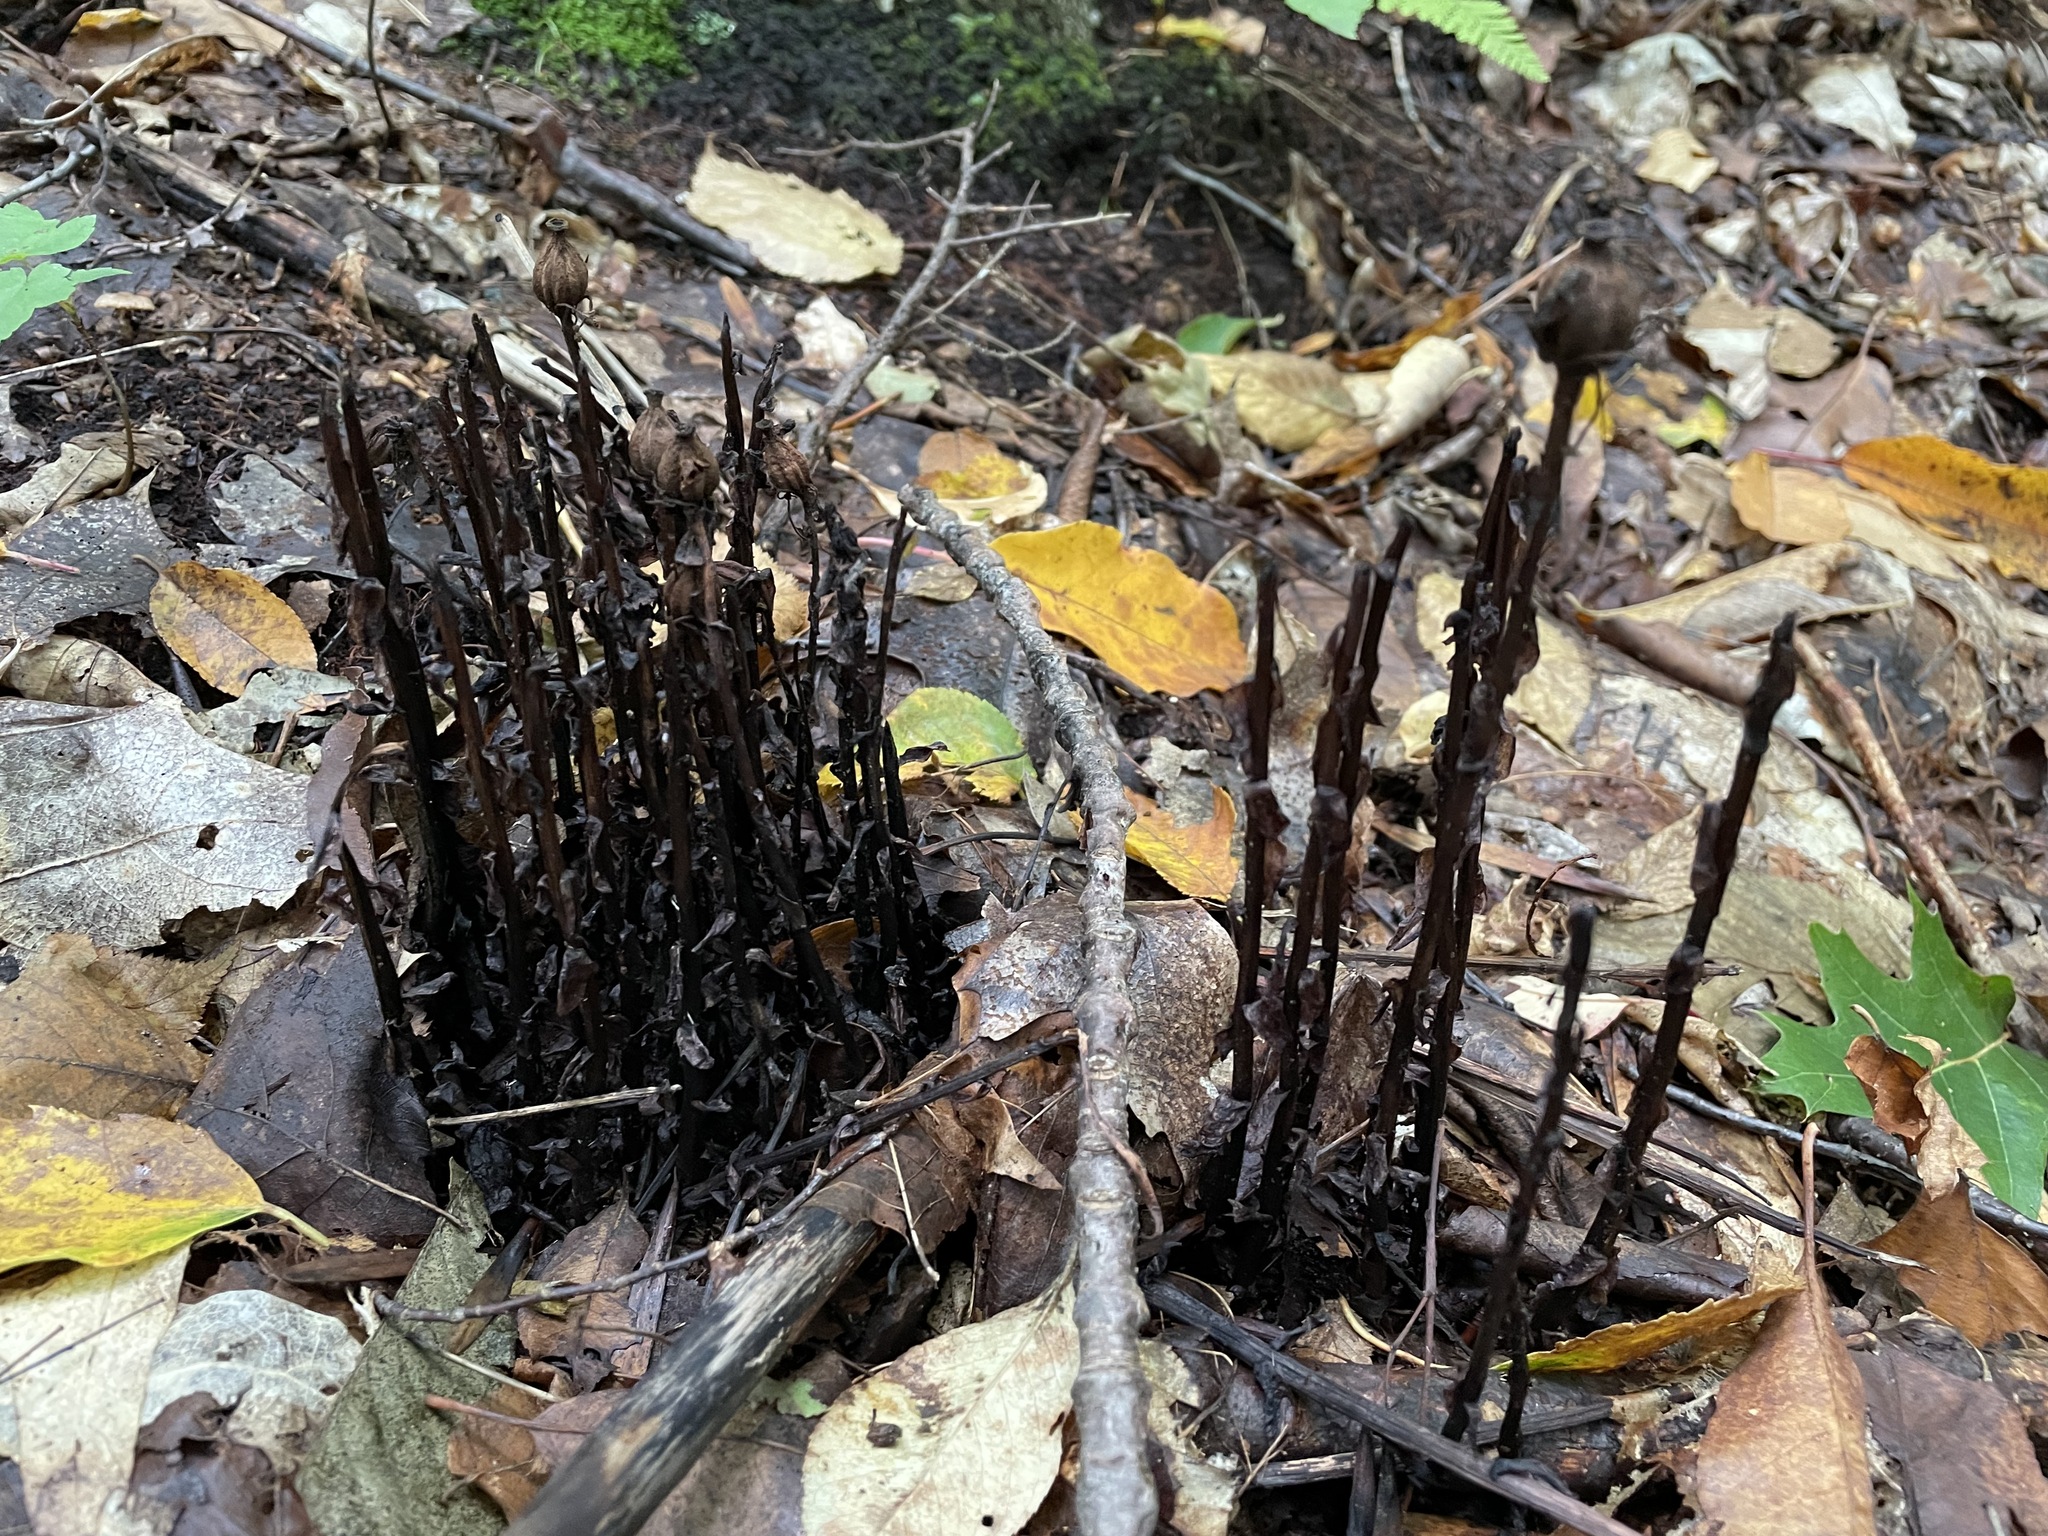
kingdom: Plantae
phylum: Tracheophyta
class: Magnoliopsida
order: Ericales
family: Ericaceae
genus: Monotropa
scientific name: Monotropa uniflora
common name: Convulsion root
